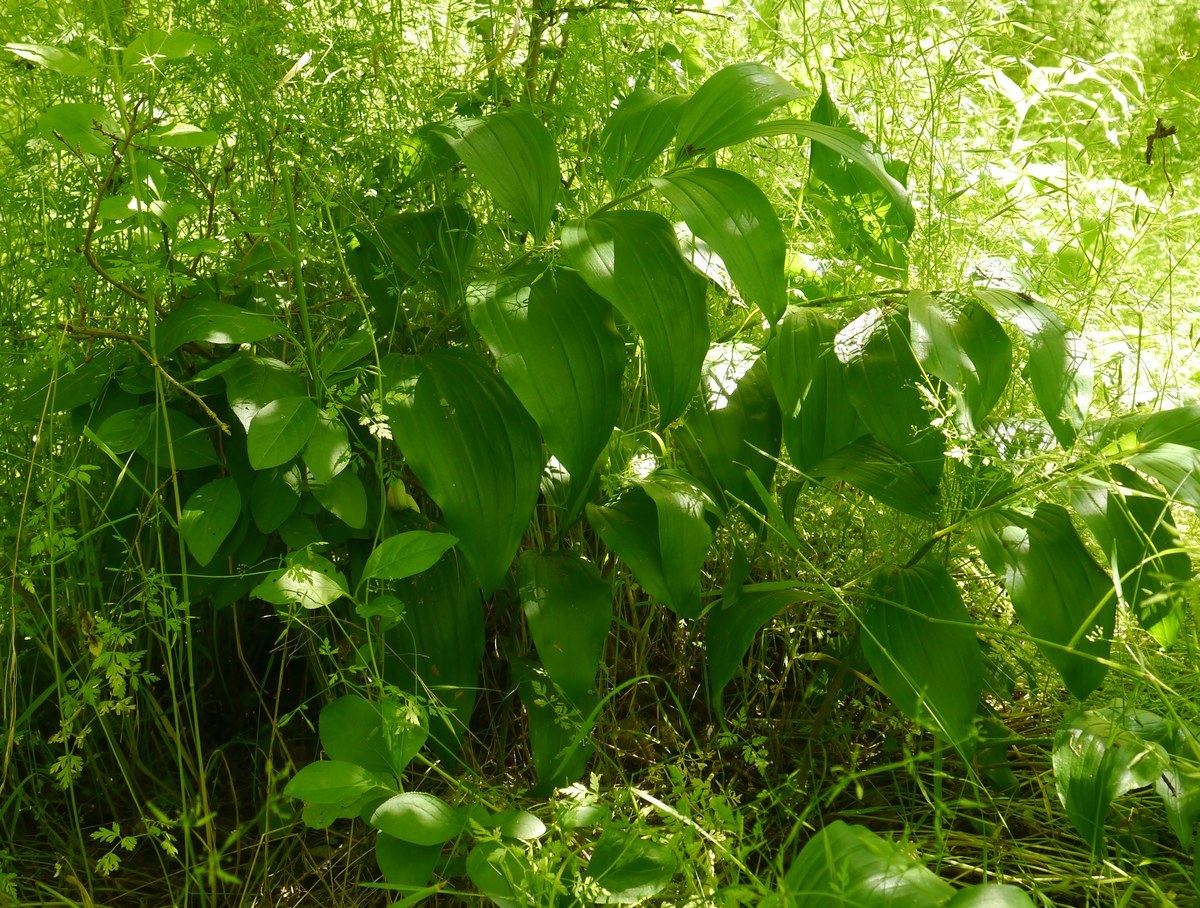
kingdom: Plantae
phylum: Tracheophyta
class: Liliopsida
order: Asparagales
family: Asparagaceae
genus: Polygonatum
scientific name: Polygonatum latifolium
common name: Broadleaf solomon's seal
